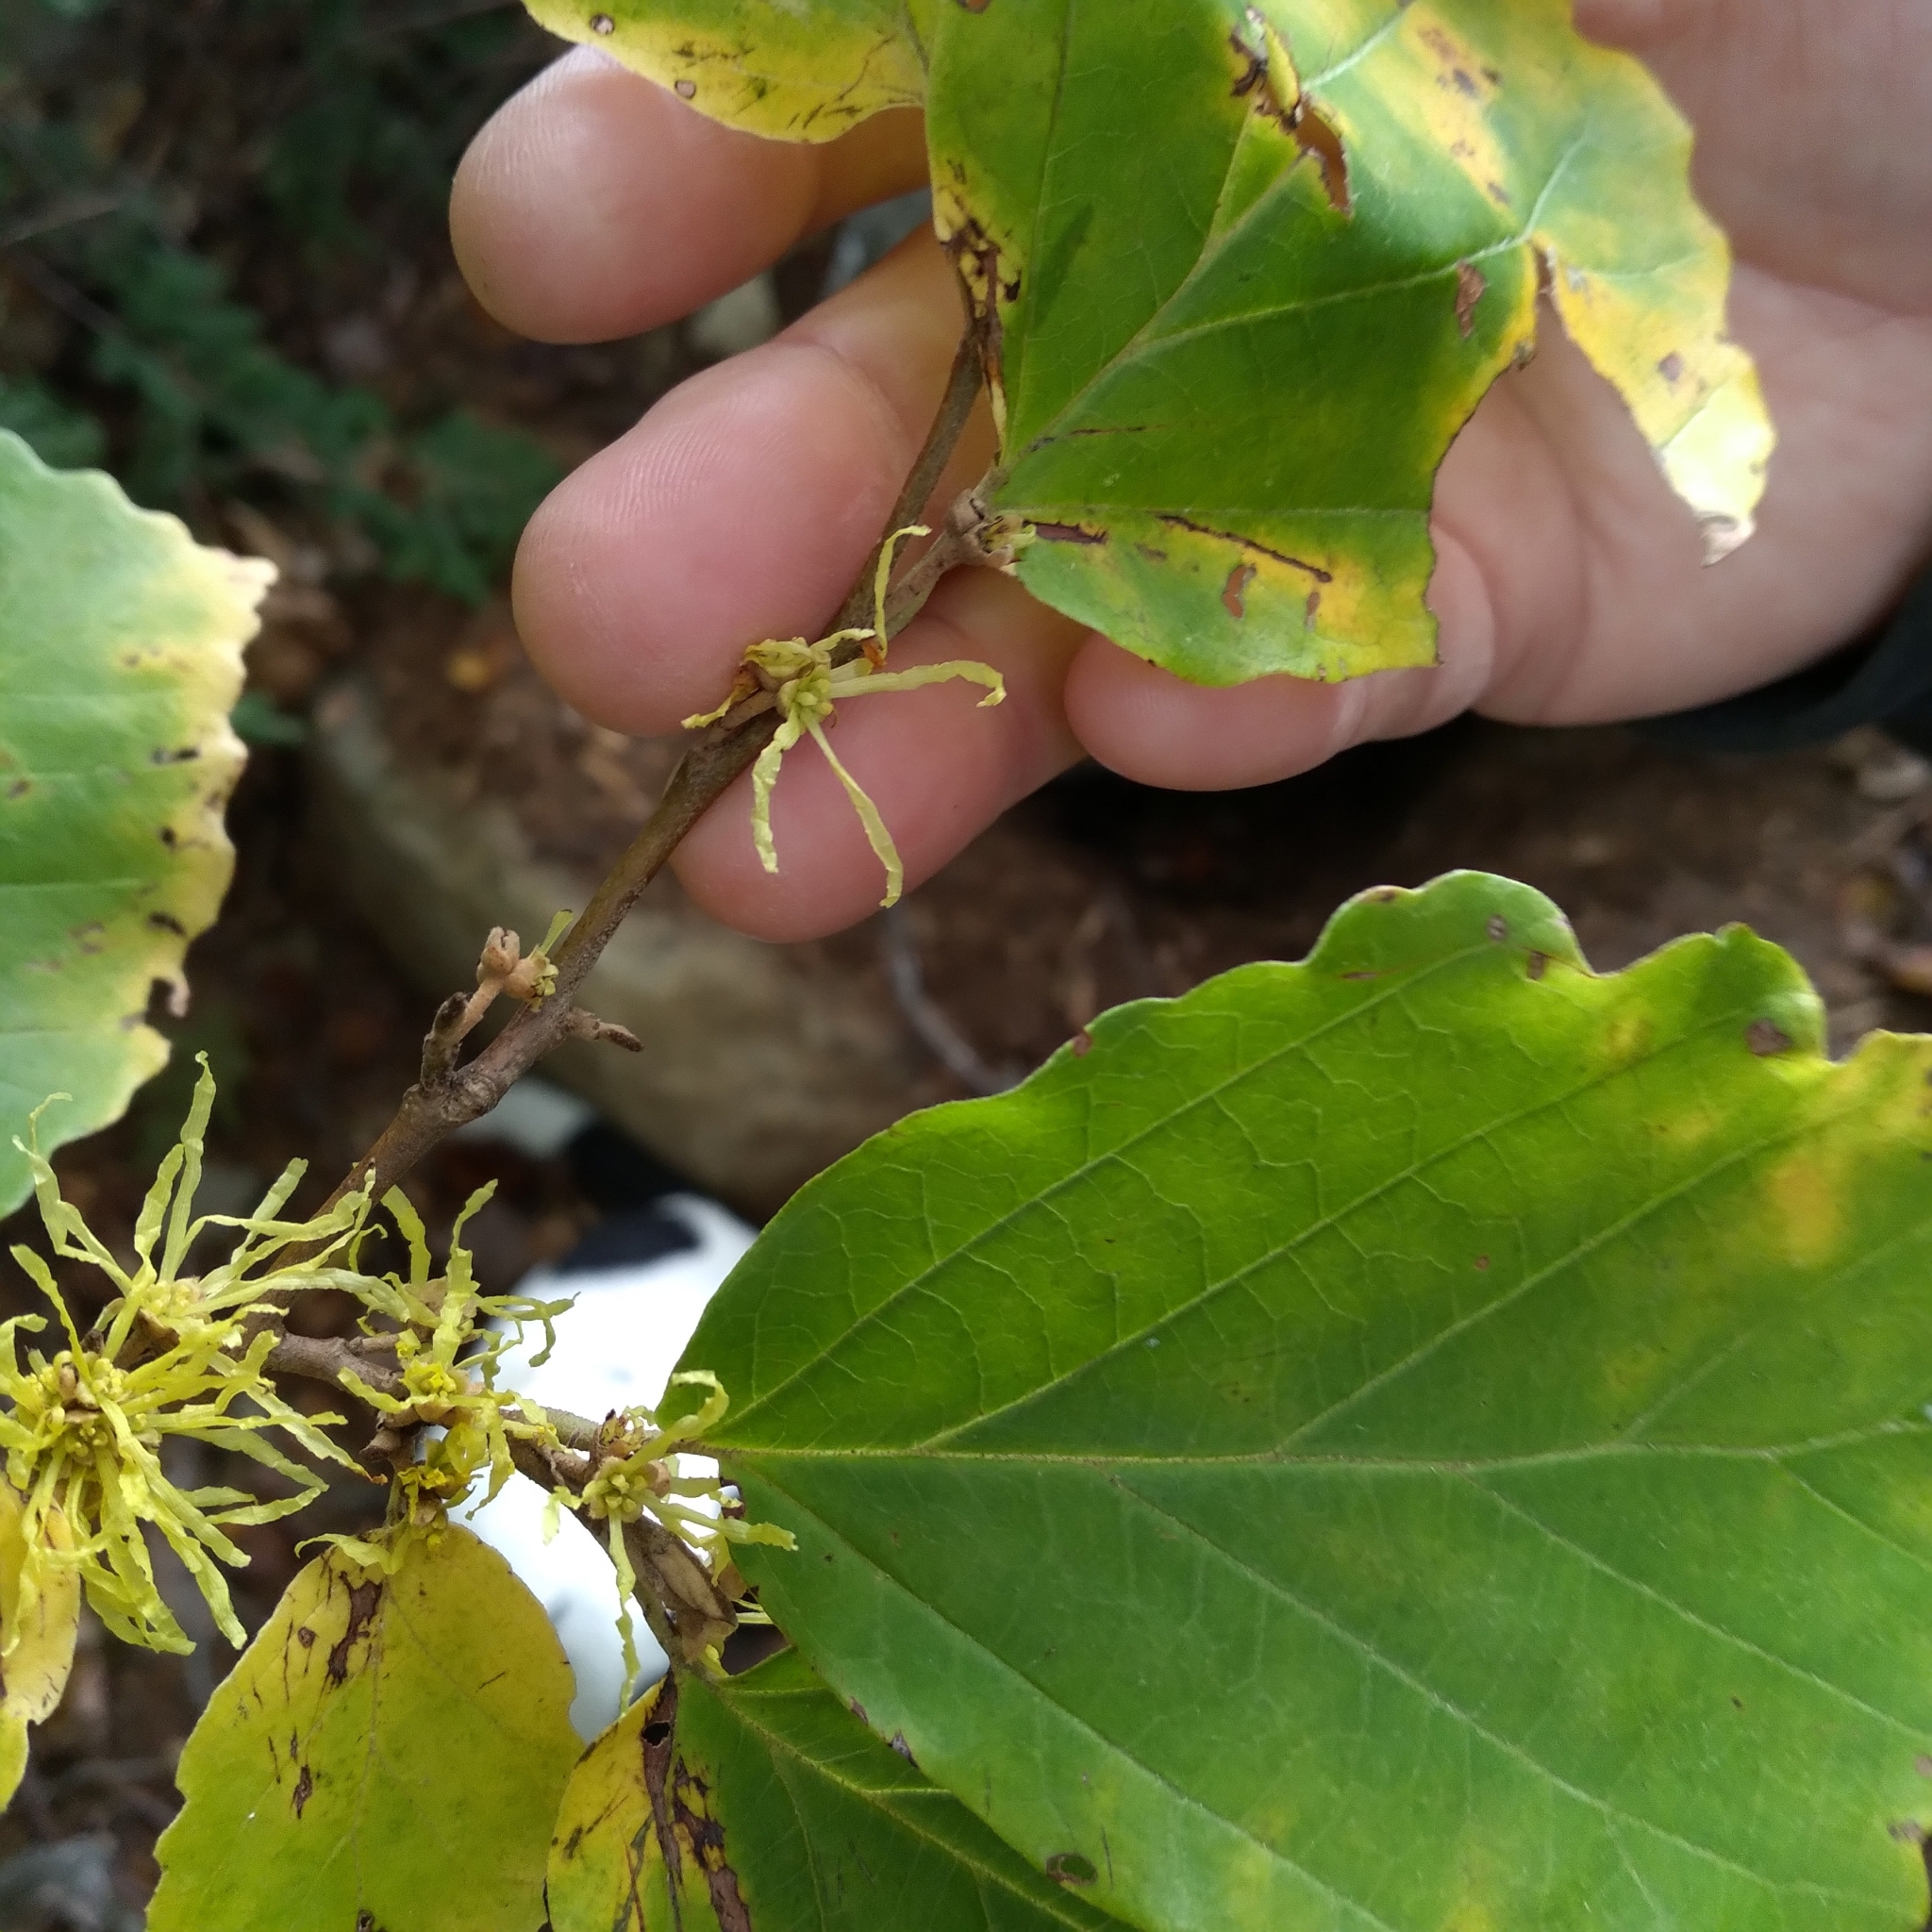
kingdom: Plantae
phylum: Tracheophyta
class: Magnoliopsida
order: Saxifragales
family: Hamamelidaceae
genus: Hamamelis
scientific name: Hamamelis virginiana
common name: Witch-hazel
